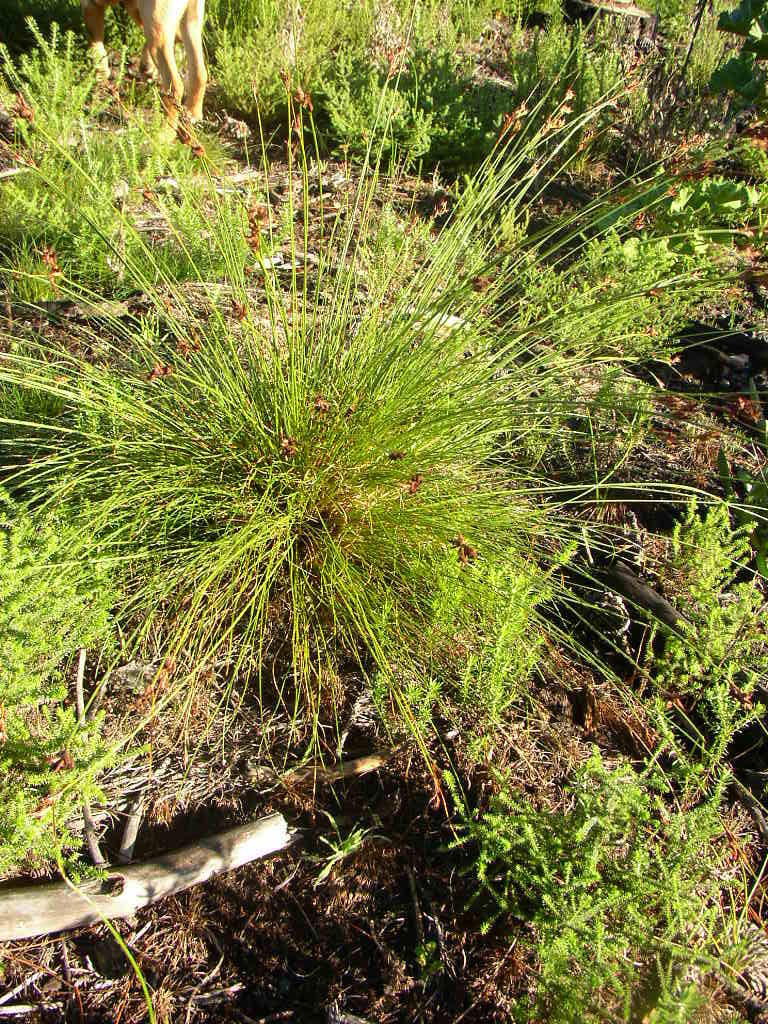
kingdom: Plantae
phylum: Tracheophyta
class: Liliopsida
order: Poales
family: Cyperaceae
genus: Schoenus
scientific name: Schoenus compar
